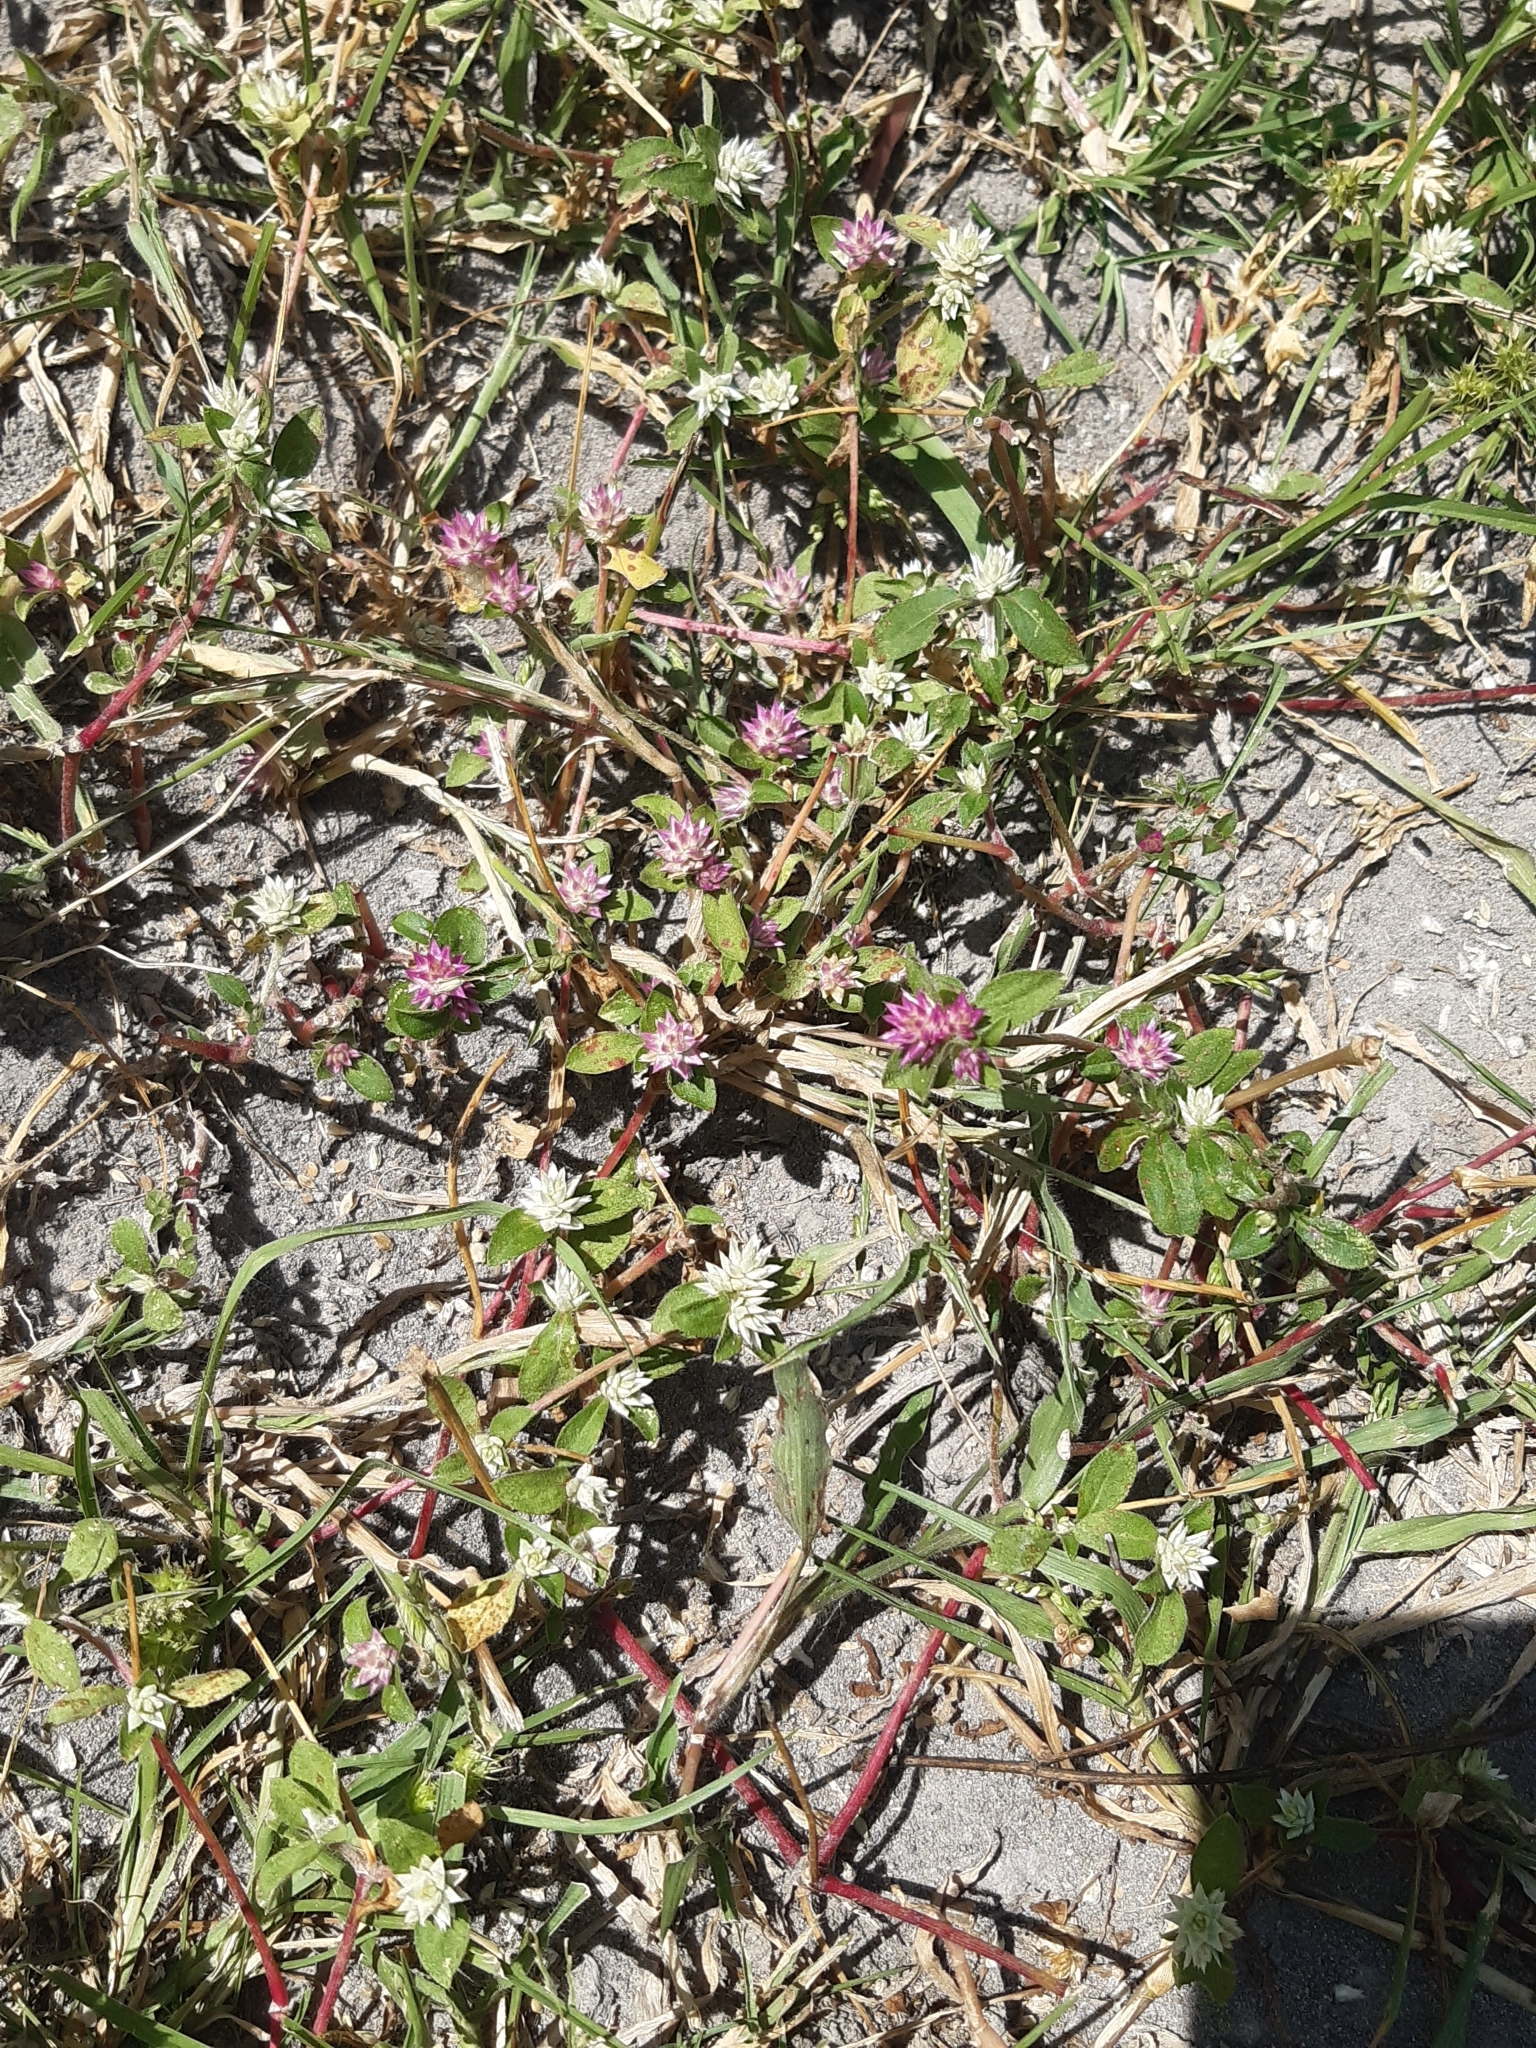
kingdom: Plantae
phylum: Tracheophyta
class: Magnoliopsida
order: Caryophyllales
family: Amaranthaceae
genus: Gomphrena
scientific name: Gomphrena serrata
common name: Arrasa con todo
